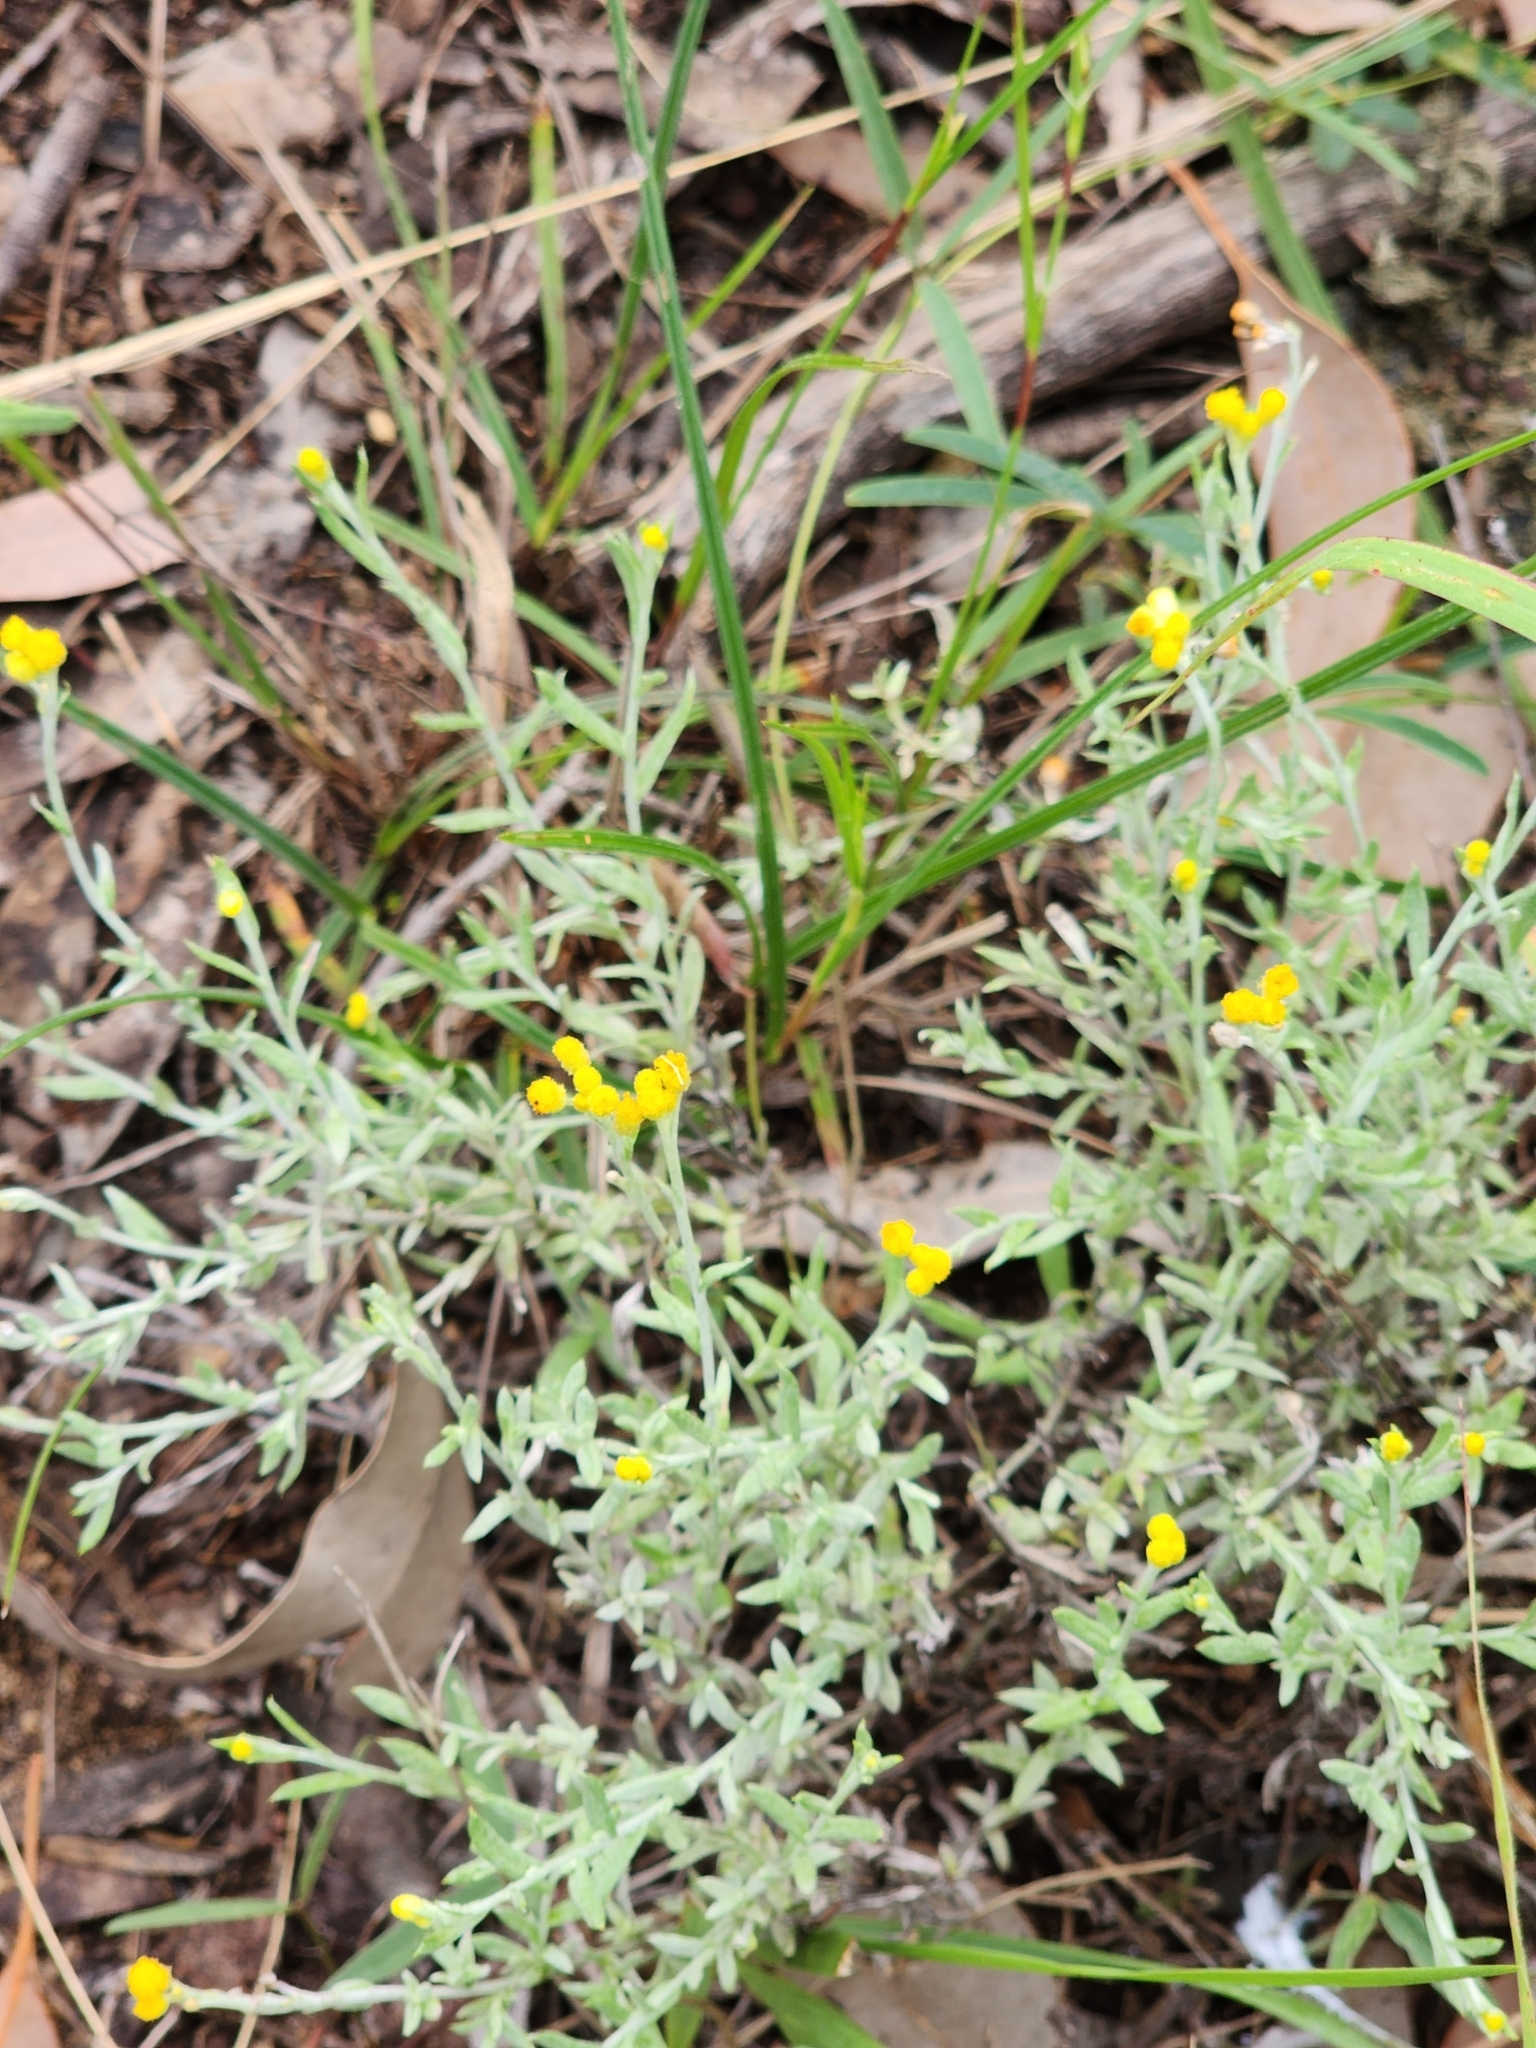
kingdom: Plantae
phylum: Tracheophyta
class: Magnoliopsida
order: Asterales
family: Asteraceae
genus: Chrysocephalum
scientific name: Chrysocephalum apiculatum
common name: Common everlasting
